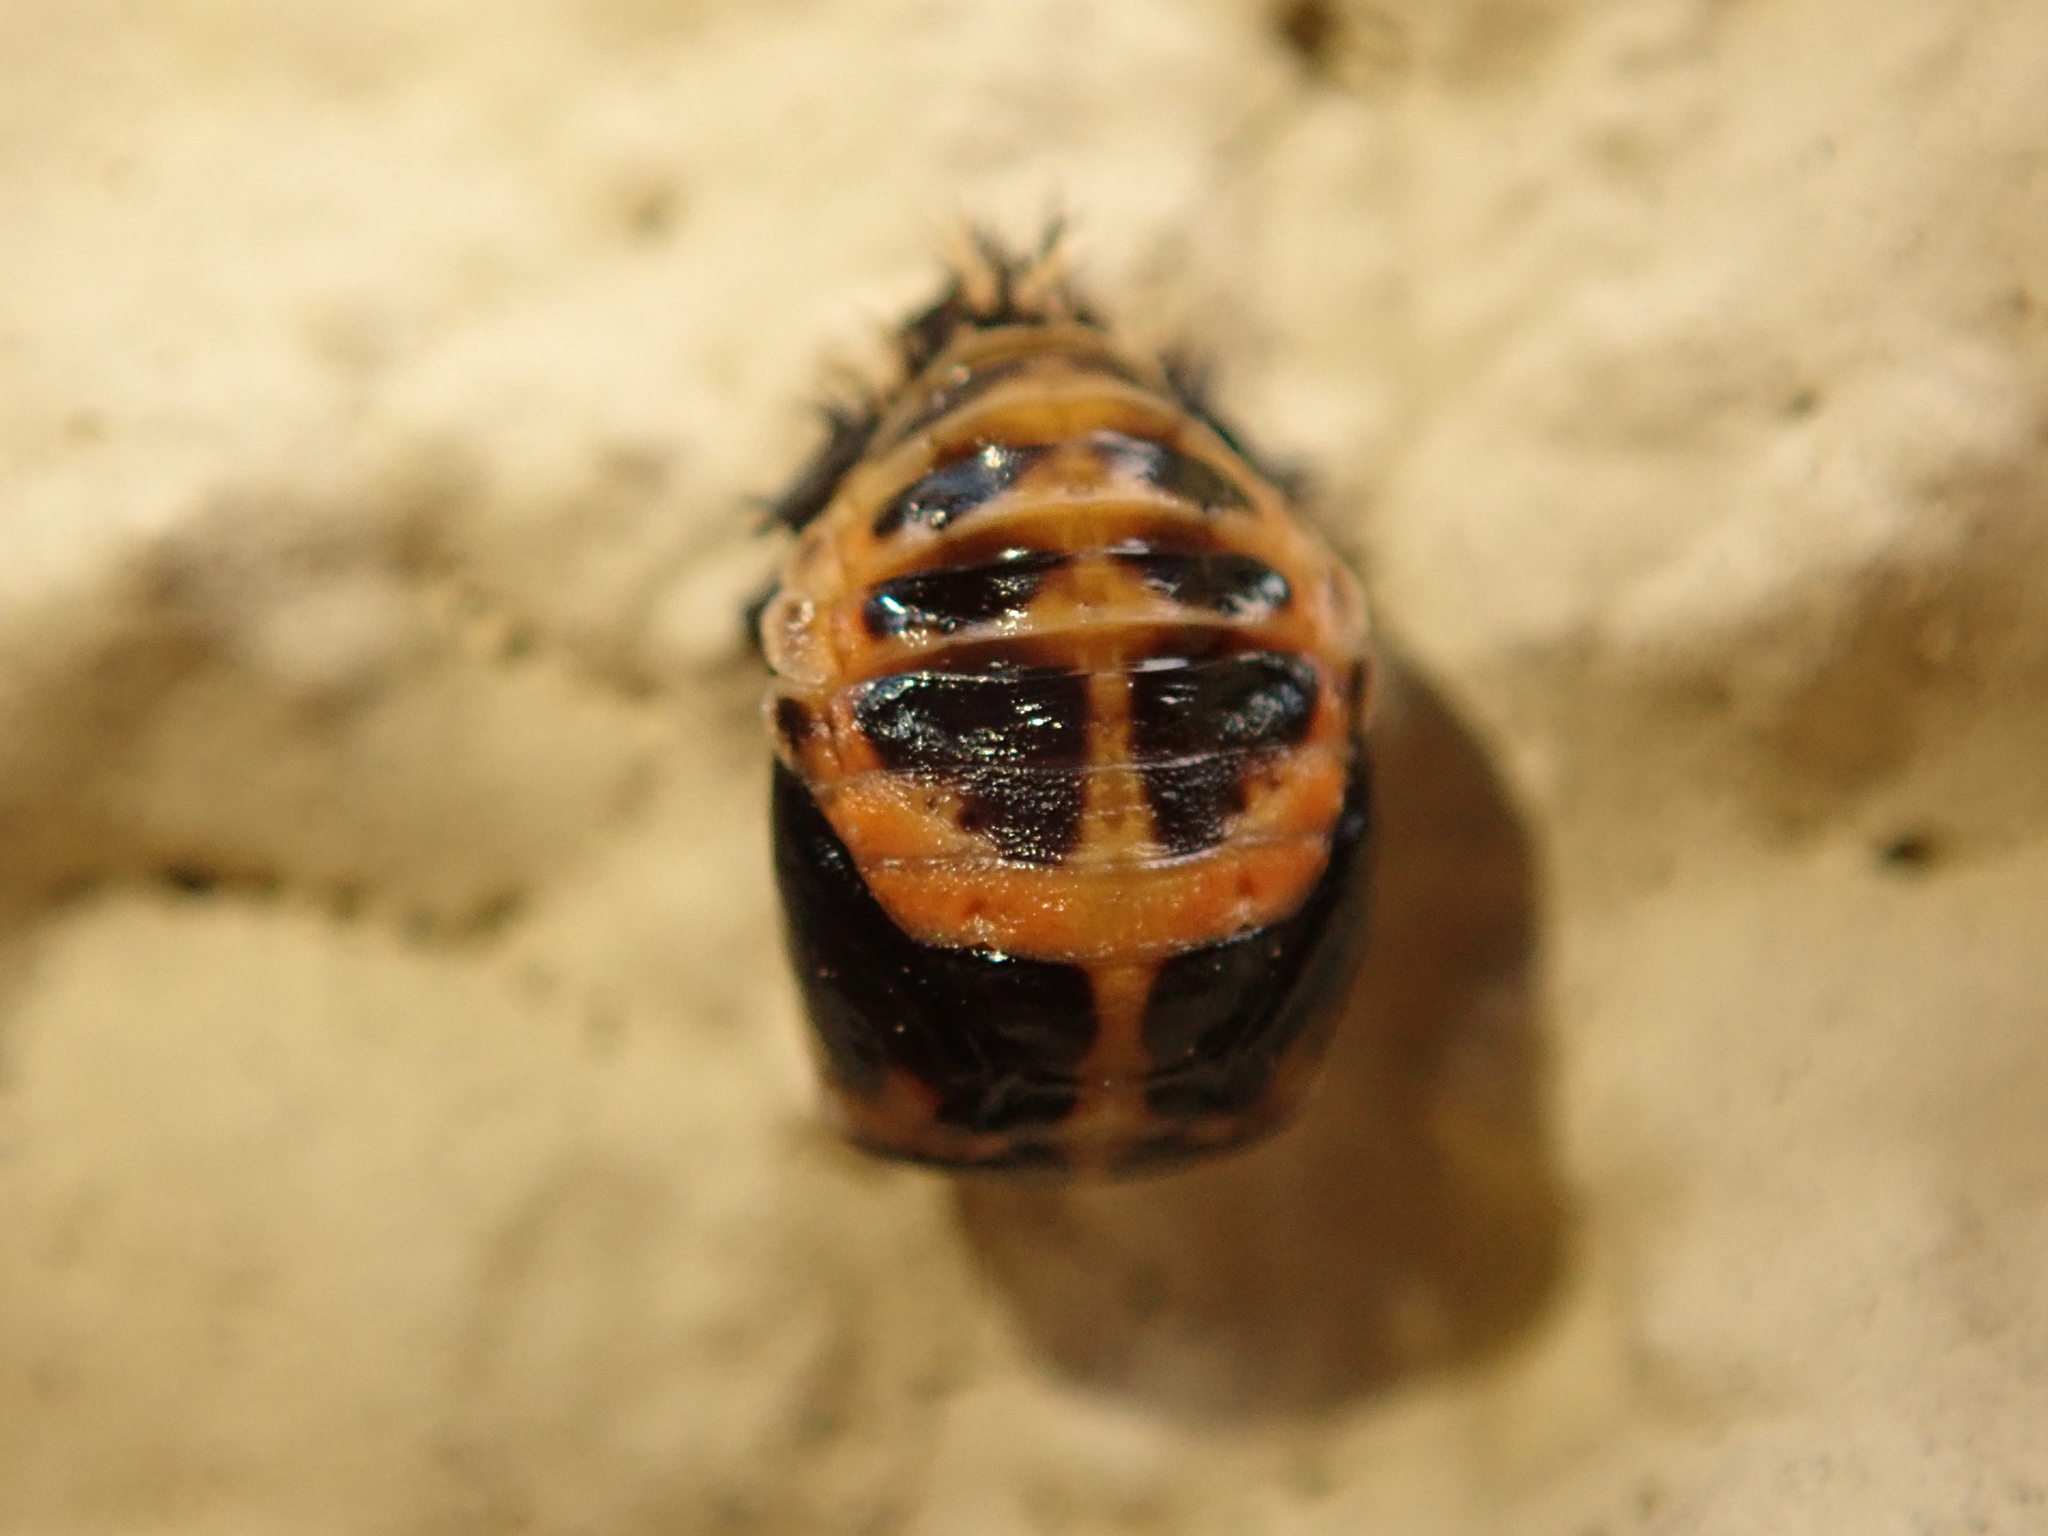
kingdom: Animalia
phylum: Arthropoda
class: Insecta
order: Coleoptera
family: Coccinellidae
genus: Harmonia
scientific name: Harmonia axyridis
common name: Harlequin ladybird
